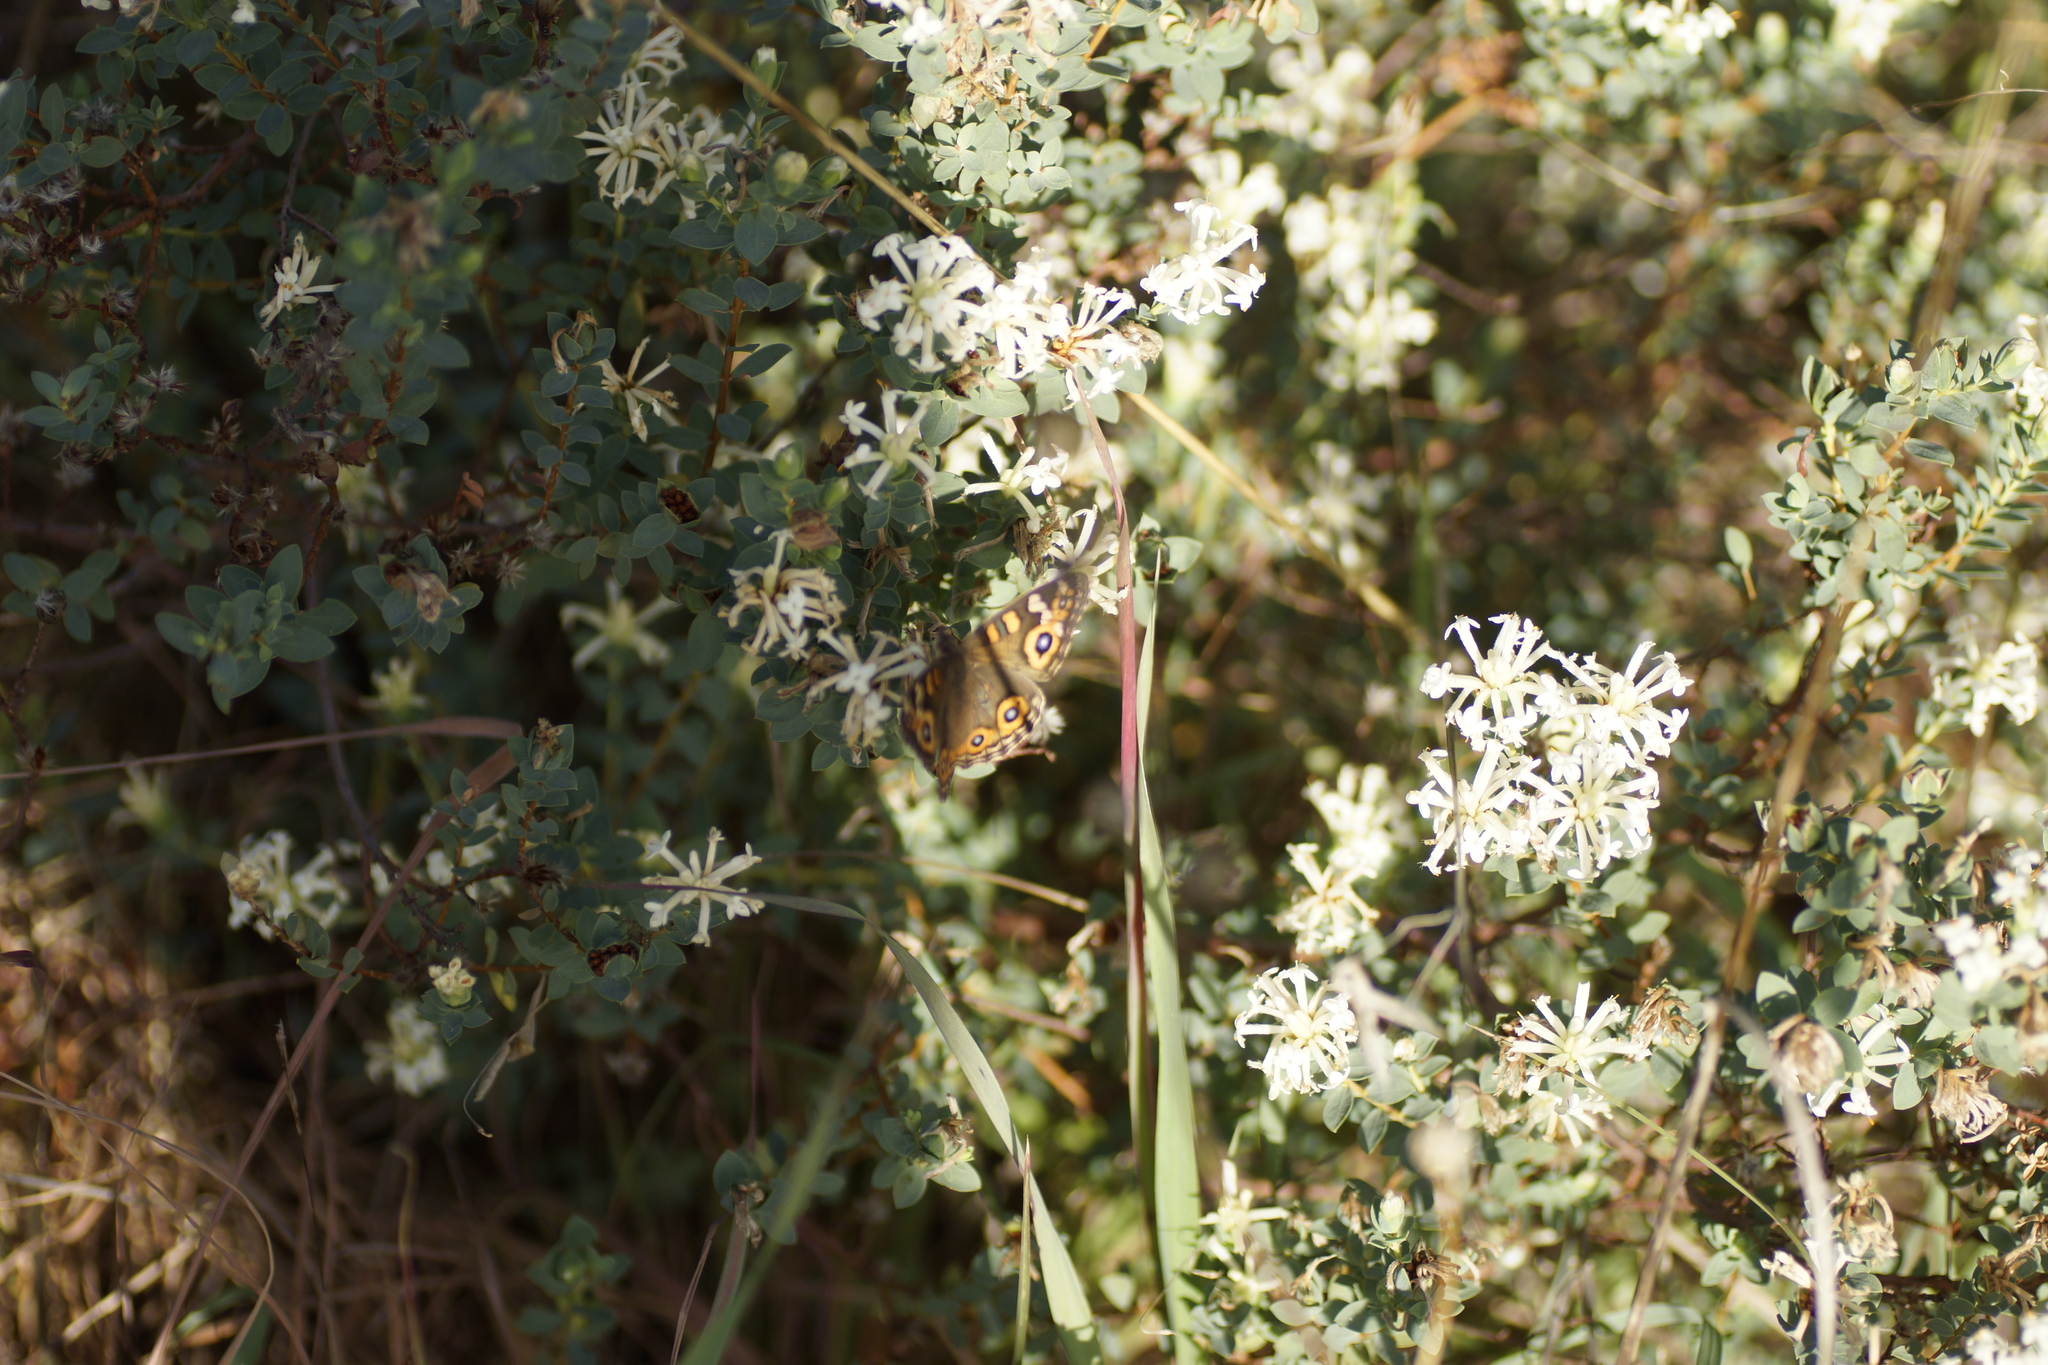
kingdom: Animalia
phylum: Arthropoda
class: Insecta
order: Lepidoptera
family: Nymphalidae
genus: Junonia
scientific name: Junonia villida
